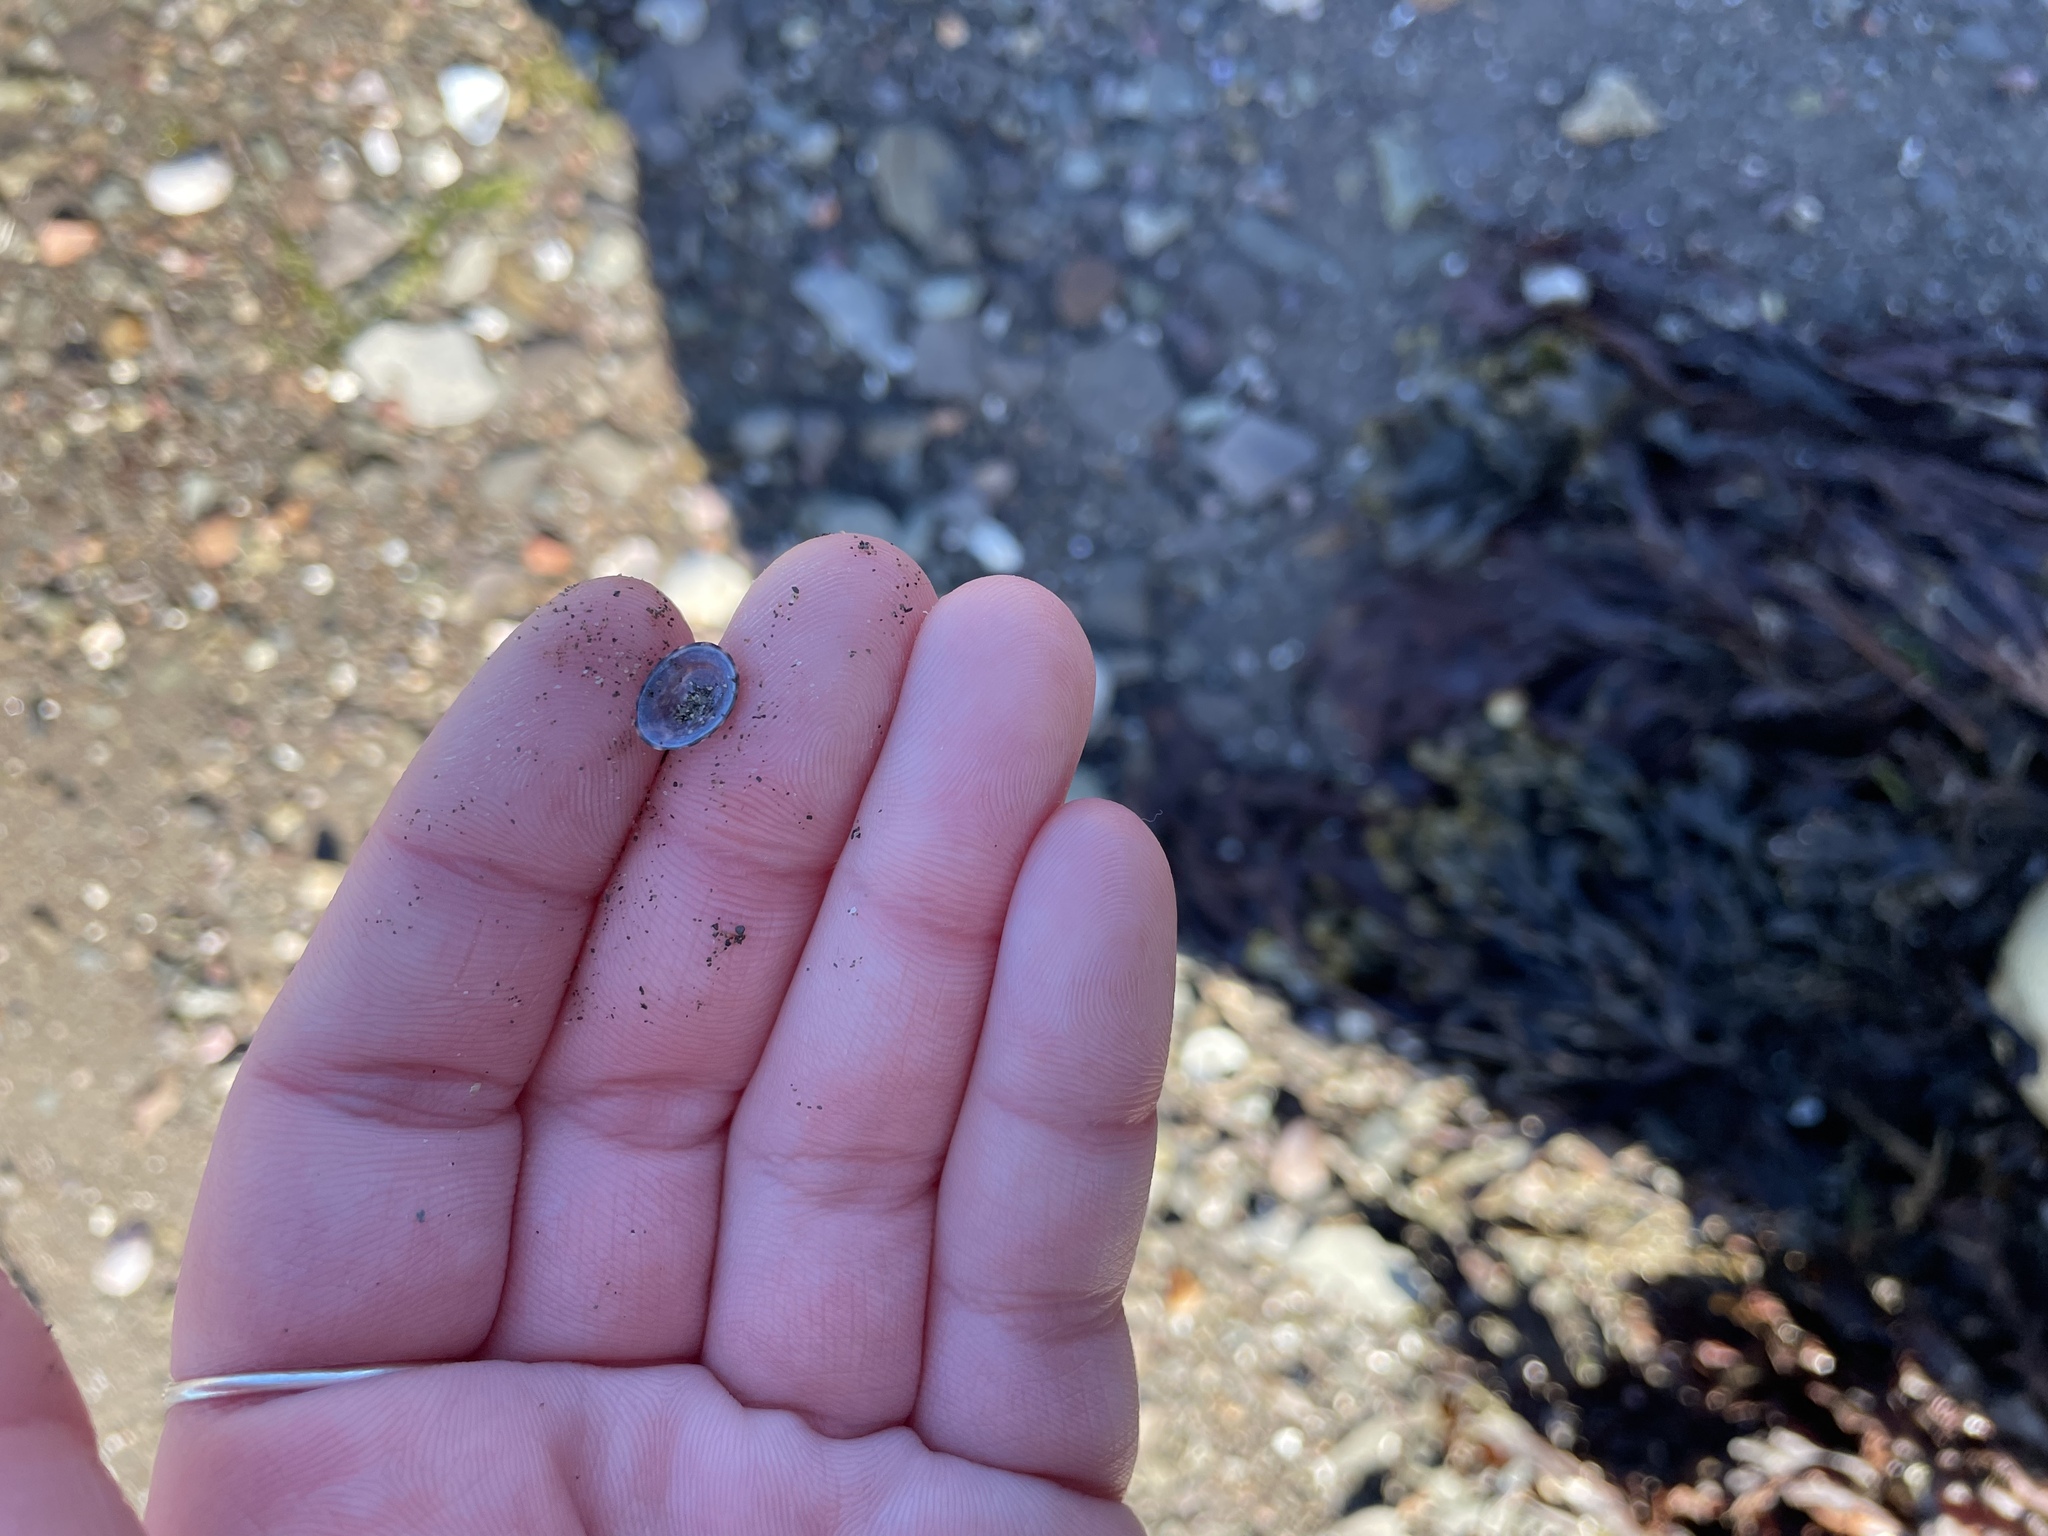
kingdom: Animalia
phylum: Mollusca
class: Gastropoda
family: Lottiidae
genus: Testudinalia
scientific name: Testudinalia testudinalis
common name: Common tortoiseshell limpet
